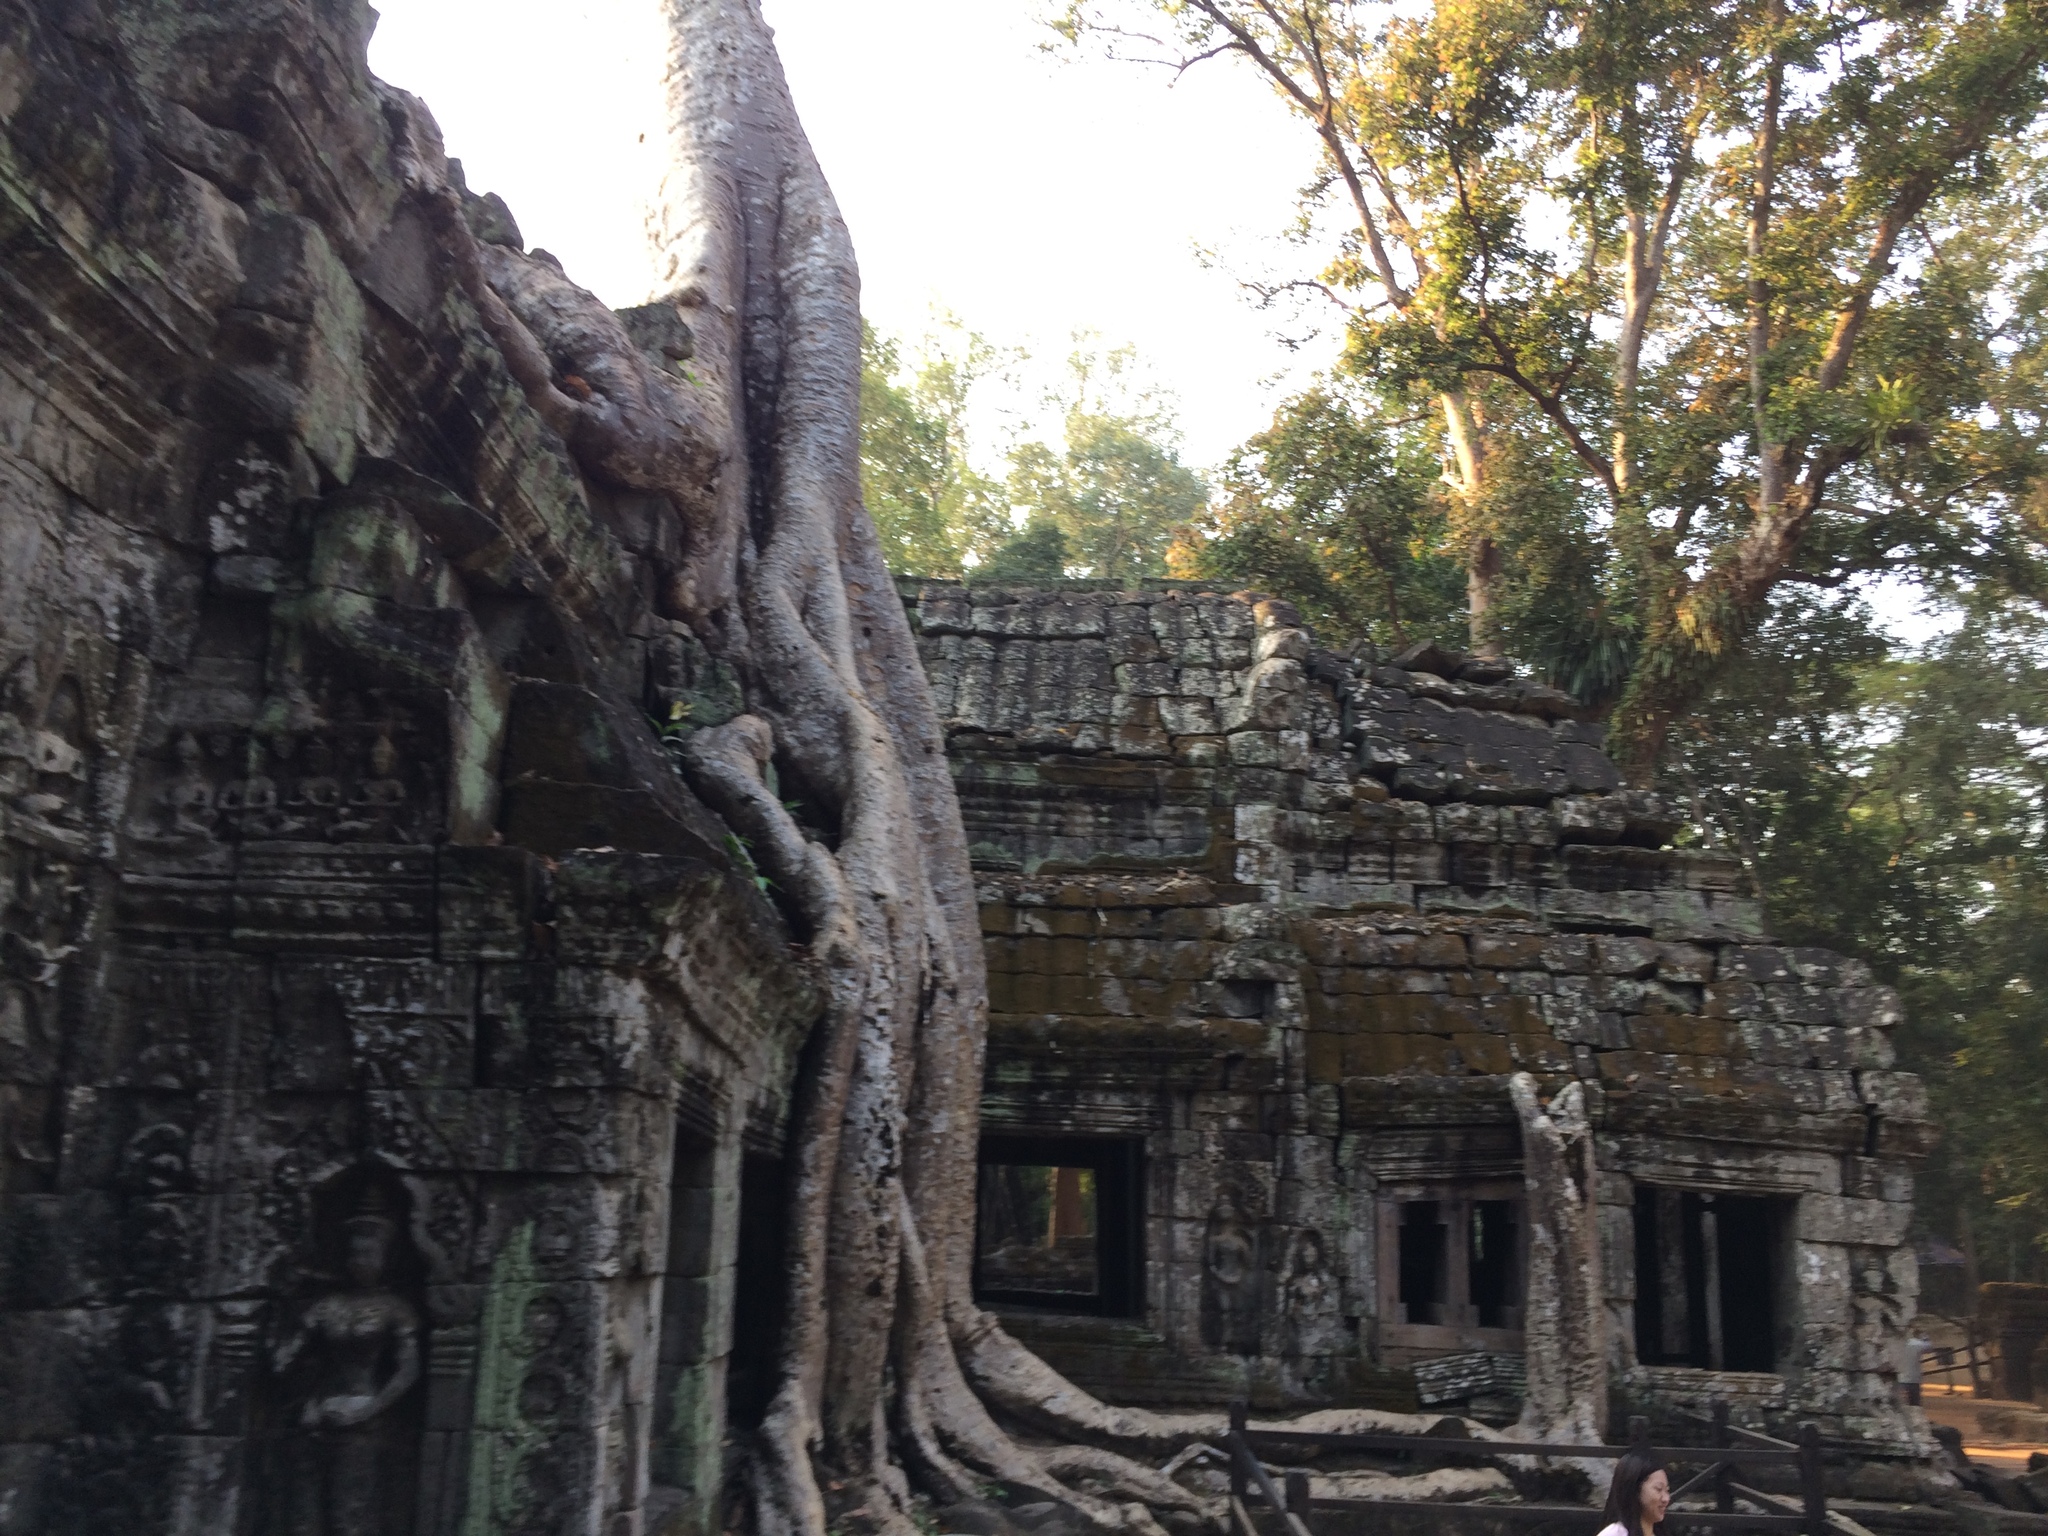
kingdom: Plantae
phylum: Tracheophyta
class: Magnoliopsida
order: Cucurbitales
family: Tetramelaceae
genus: Tetrameles
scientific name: Tetrameles nudiflora
